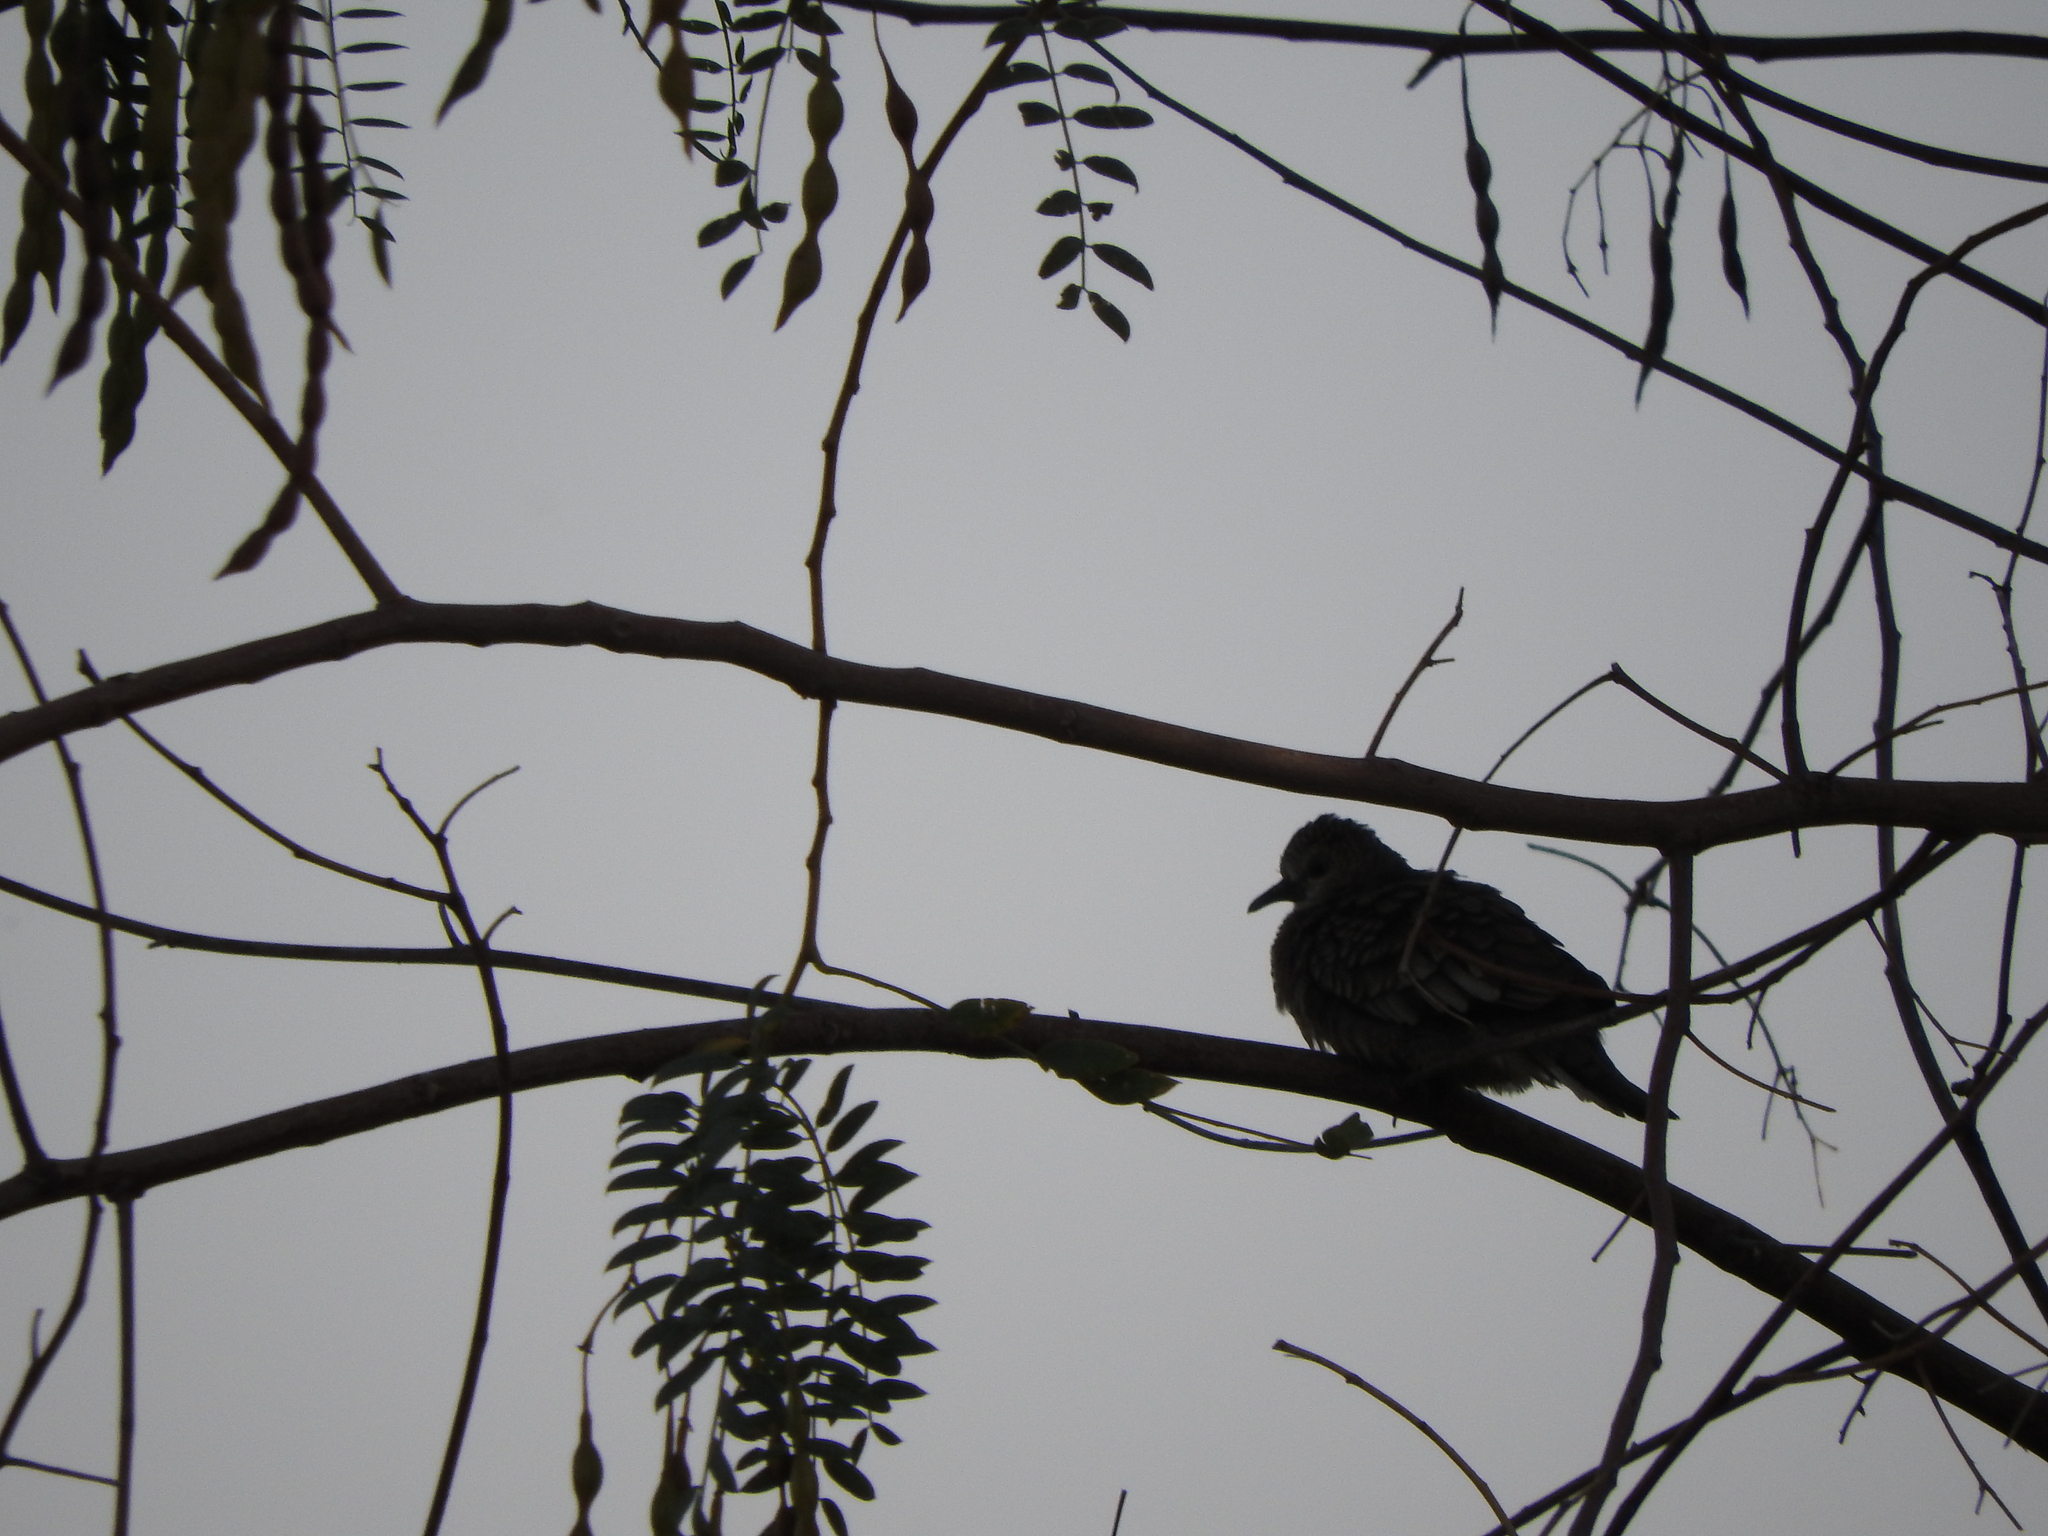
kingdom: Animalia
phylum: Chordata
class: Aves
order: Columbiformes
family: Columbidae
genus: Columbina
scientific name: Columbina inca
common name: Inca dove
